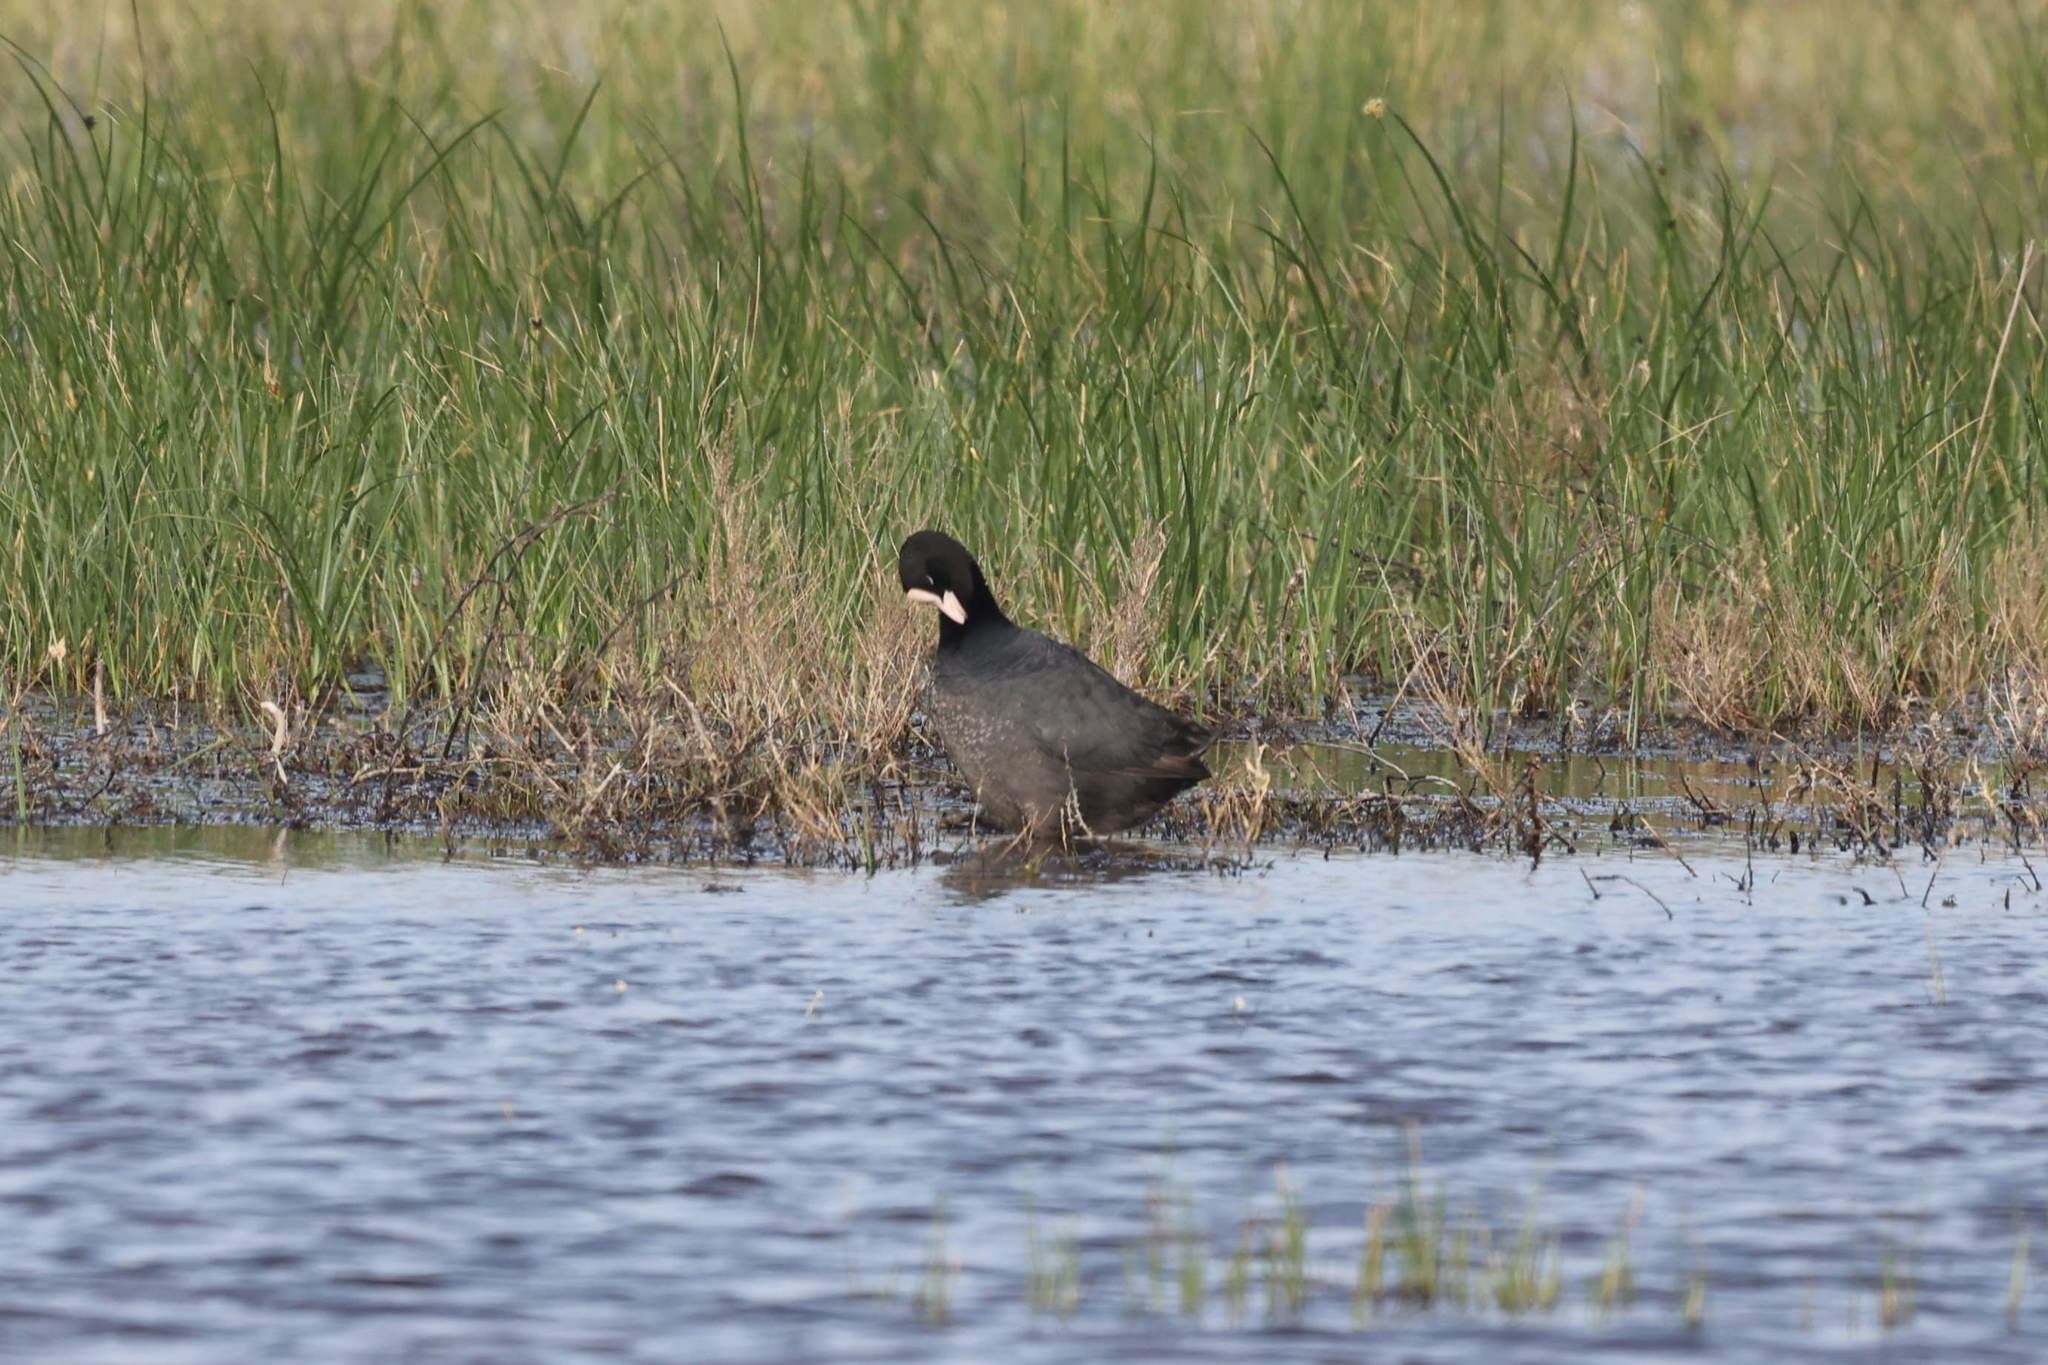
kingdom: Animalia
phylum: Chordata
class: Aves
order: Gruiformes
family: Rallidae
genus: Fulica
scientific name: Fulica atra
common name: Eurasian coot
